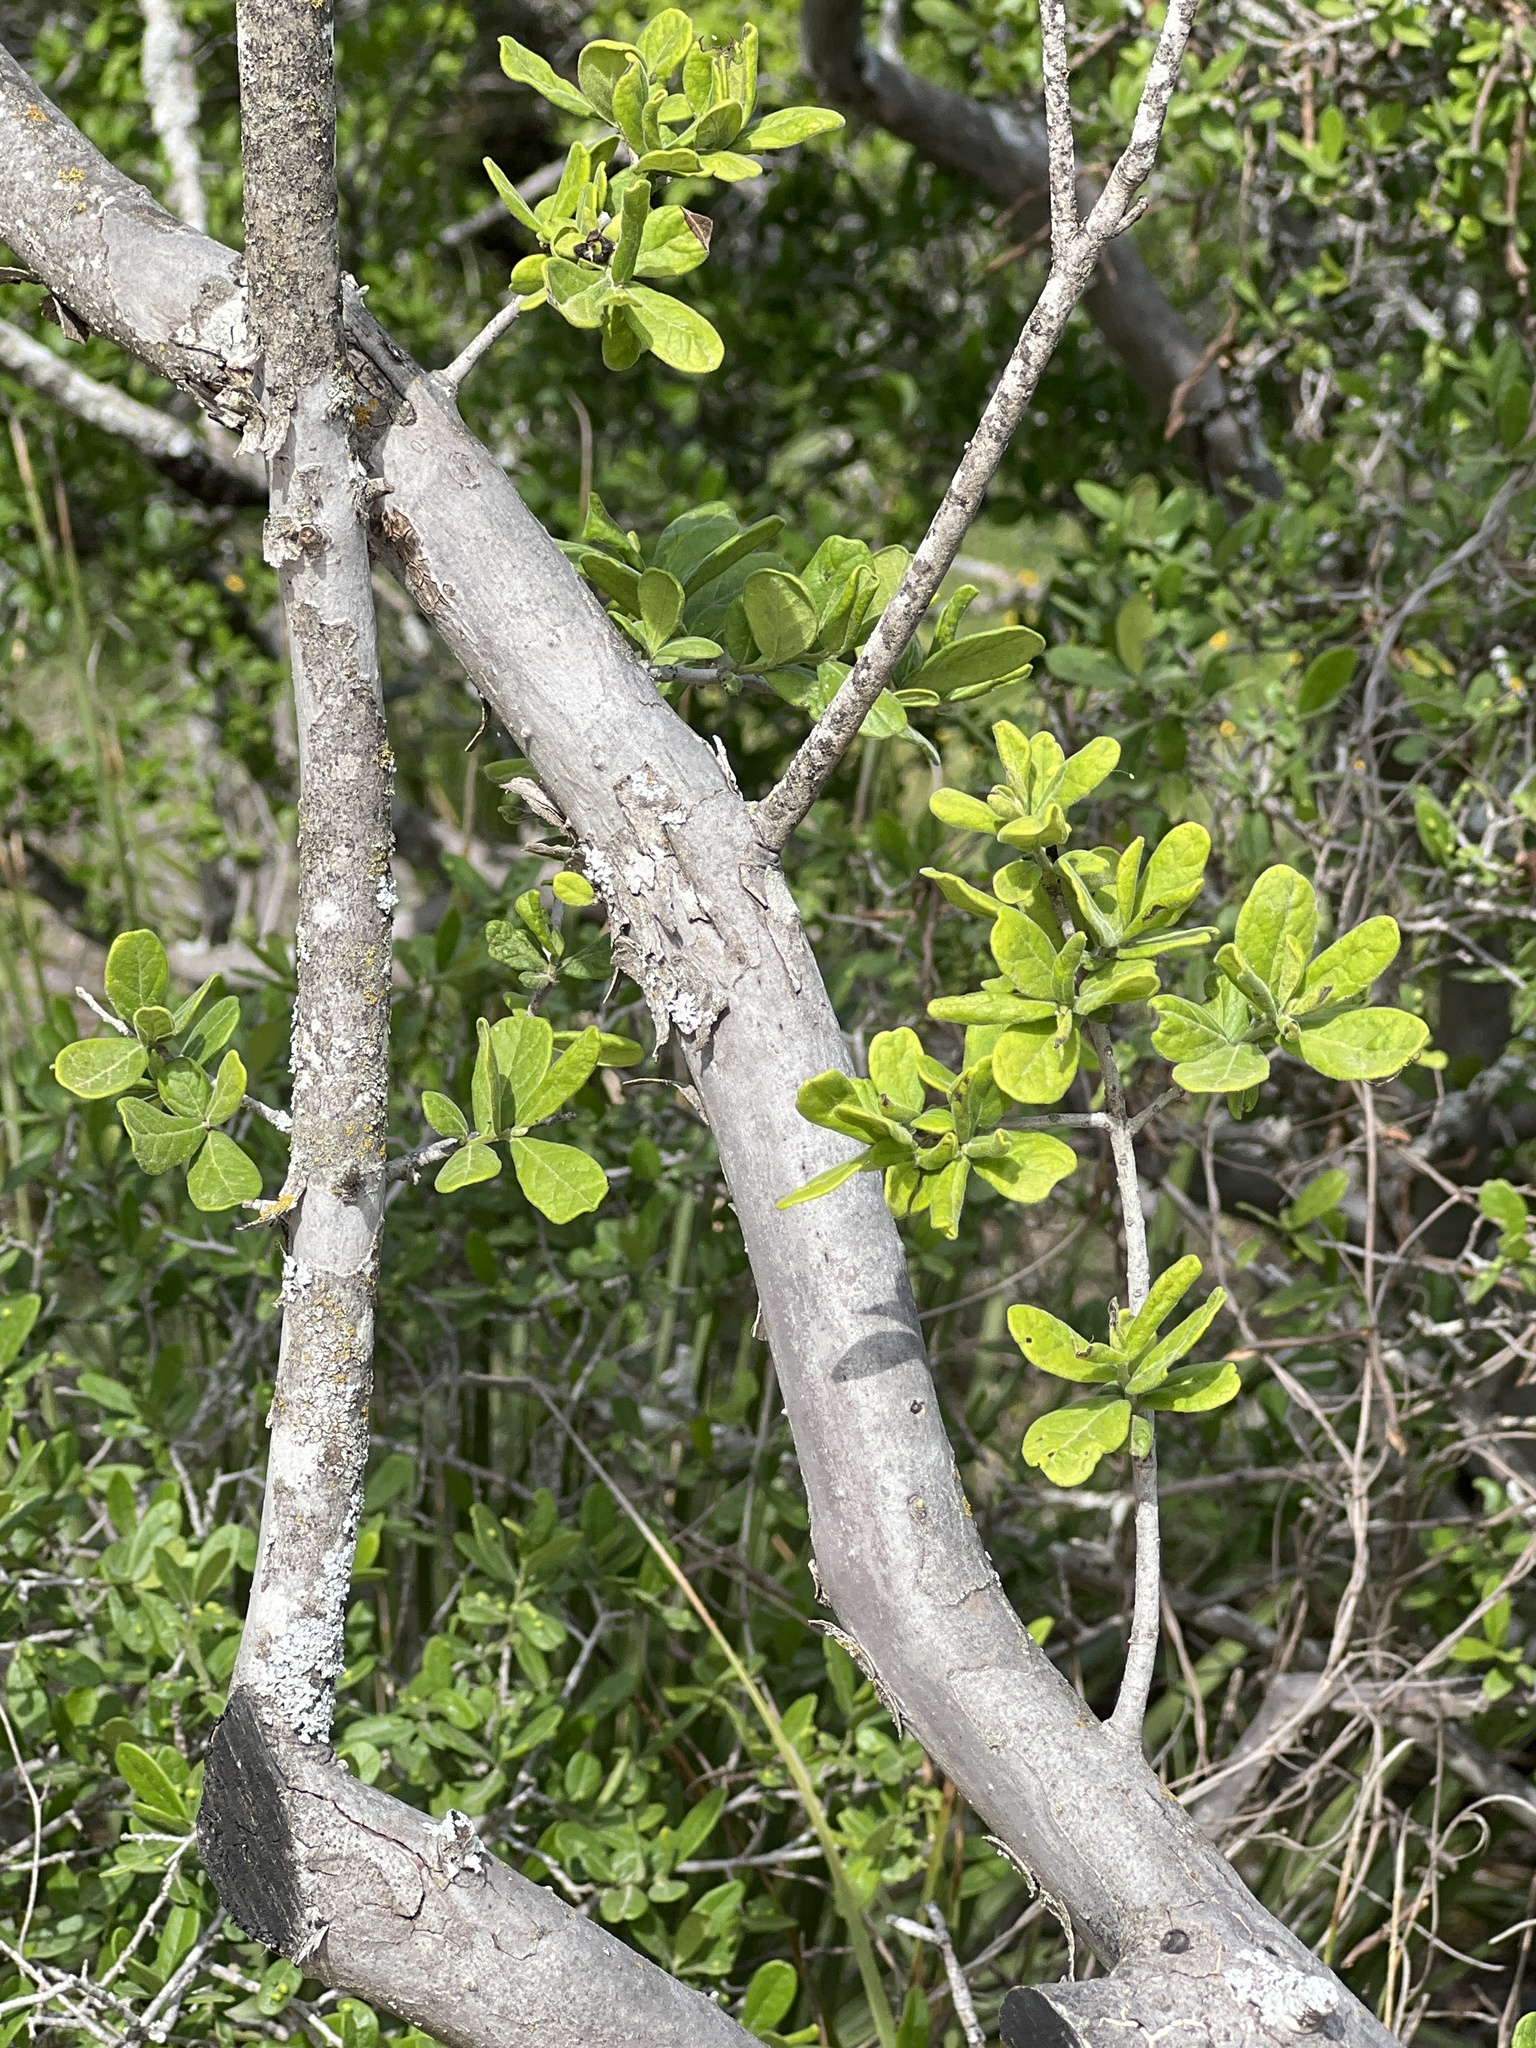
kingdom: Plantae
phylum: Tracheophyta
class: Magnoliopsida
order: Ericales
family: Ebenaceae
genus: Diospyros
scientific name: Diospyros texana
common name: Texas persimmon
